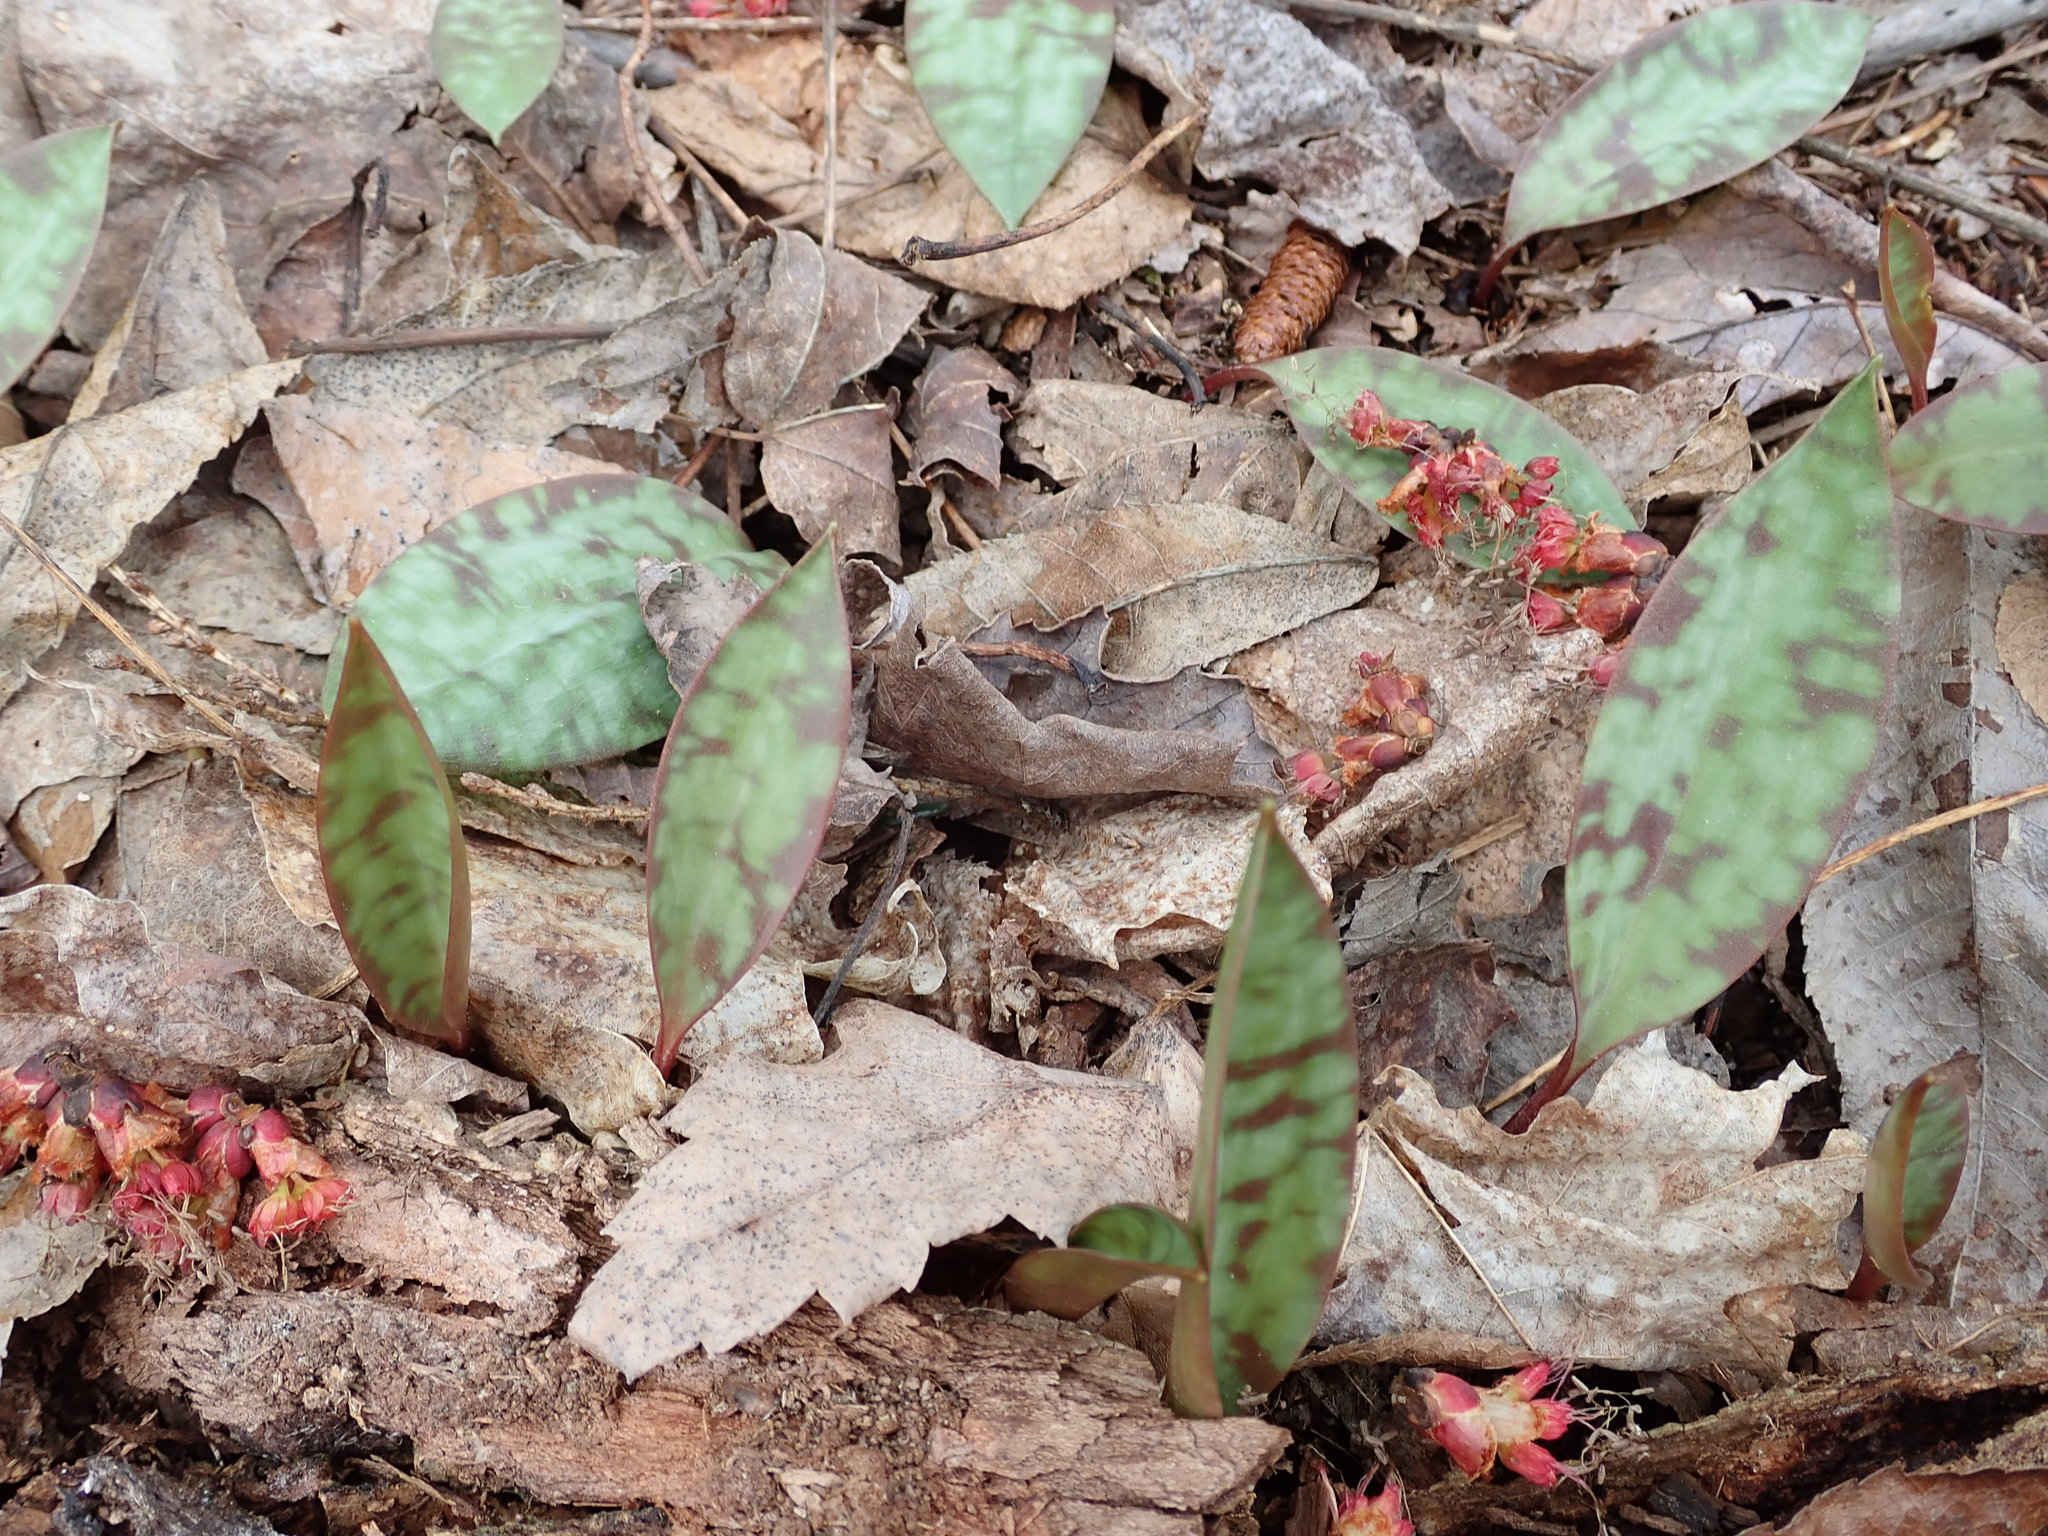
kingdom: Plantae
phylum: Tracheophyta
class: Liliopsida
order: Liliales
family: Liliaceae
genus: Erythronium
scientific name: Erythronium americanum
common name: Yellow adder's-tongue
